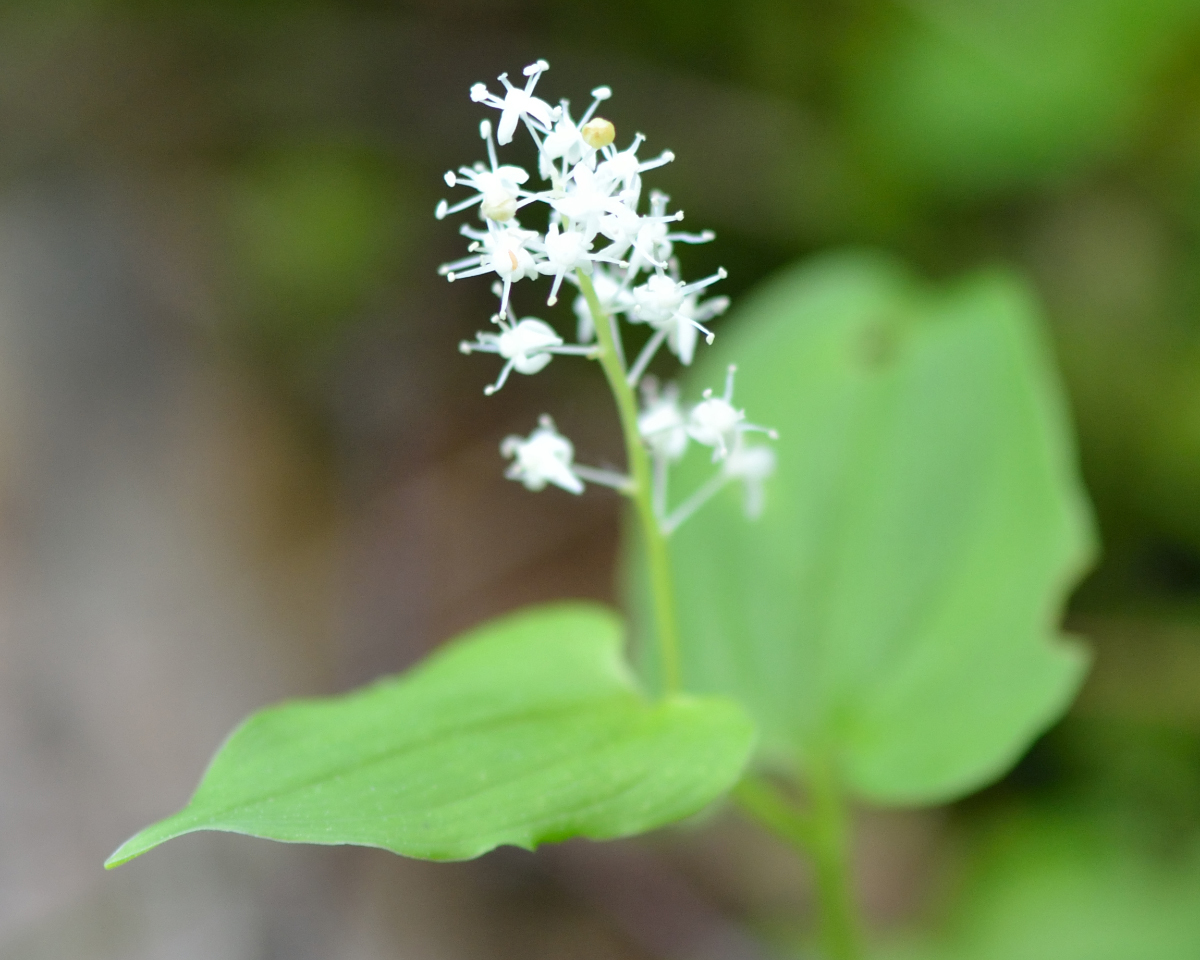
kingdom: Plantae
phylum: Tracheophyta
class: Liliopsida
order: Asparagales
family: Asparagaceae
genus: Maianthemum
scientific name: Maianthemum bifolium
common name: May lily
